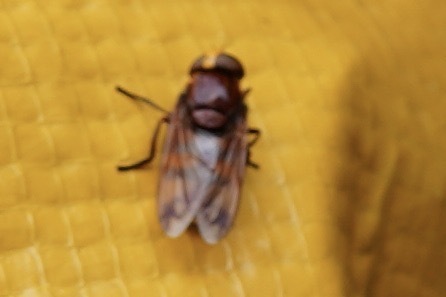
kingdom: Animalia
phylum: Arthropoda
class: Insecta
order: Diptera
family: Syrphidae
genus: Volucella
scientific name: Volucella zonaria
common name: Hornet hoverfly
